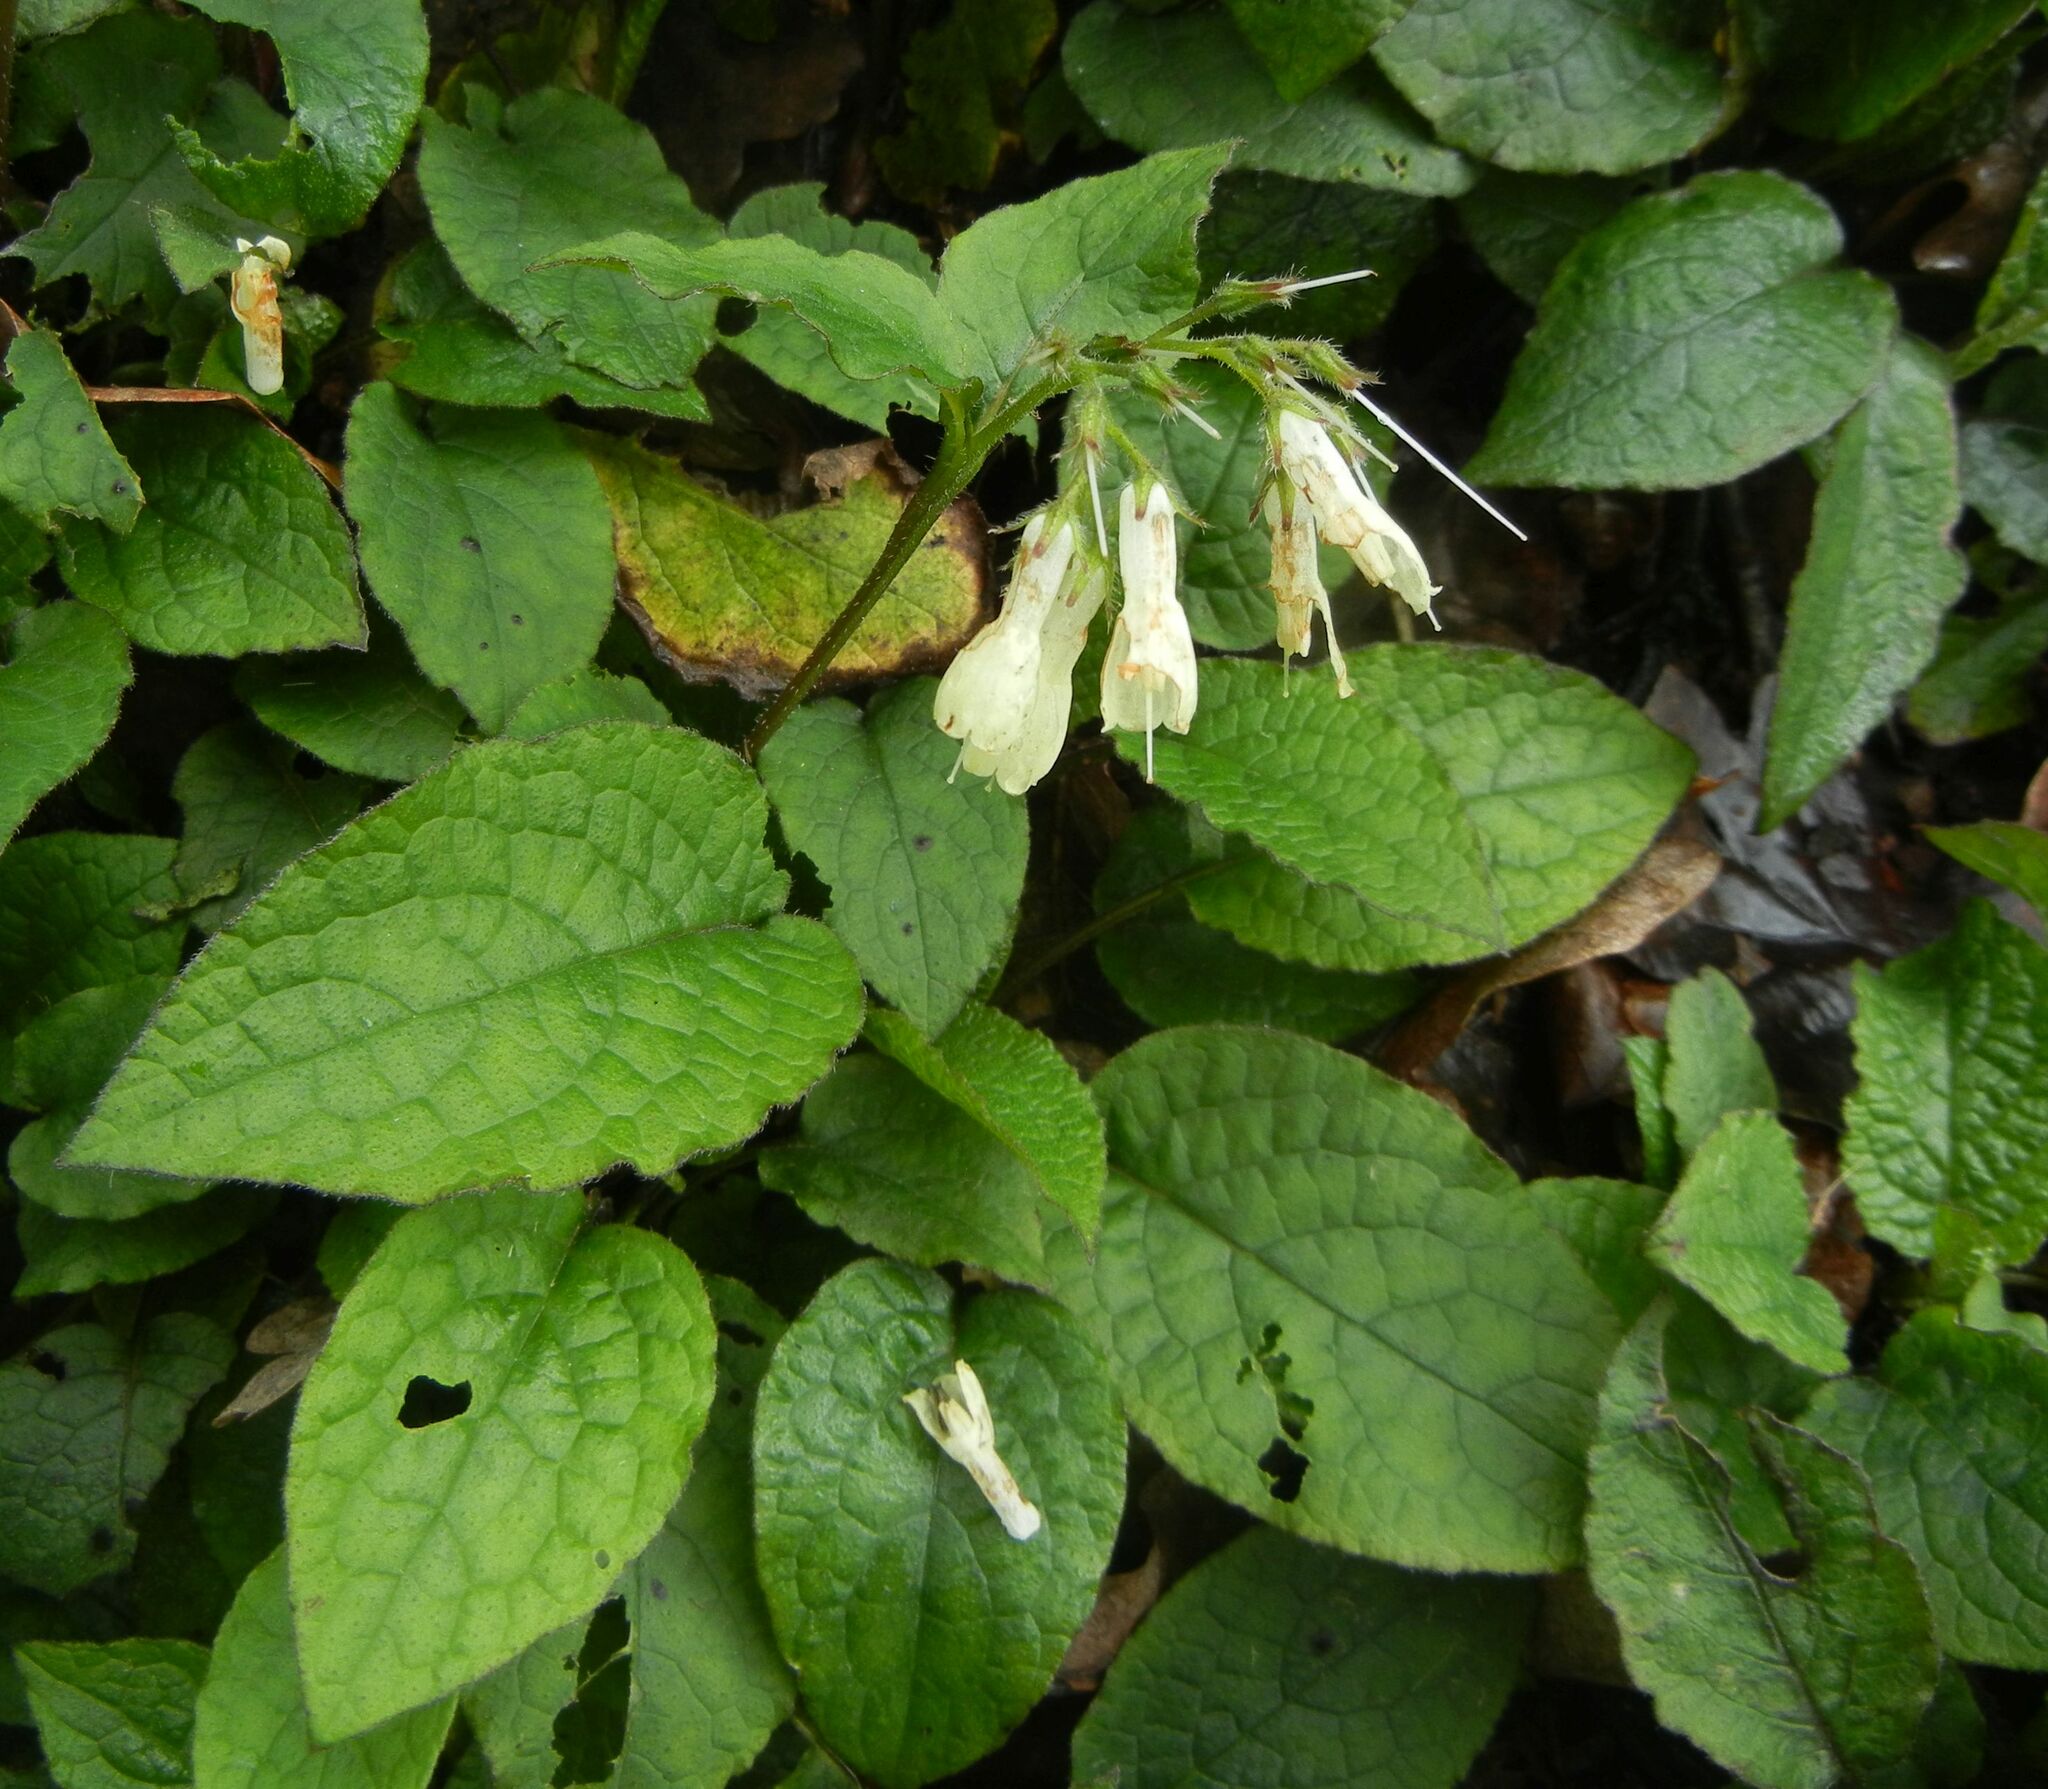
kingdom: Plantae
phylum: Tracheophyta
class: Magnoliopsida
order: Boraginales
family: Boraginaceae
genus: Symphytum
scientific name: Symphytum grandiflorum
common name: Creeping comfrey
